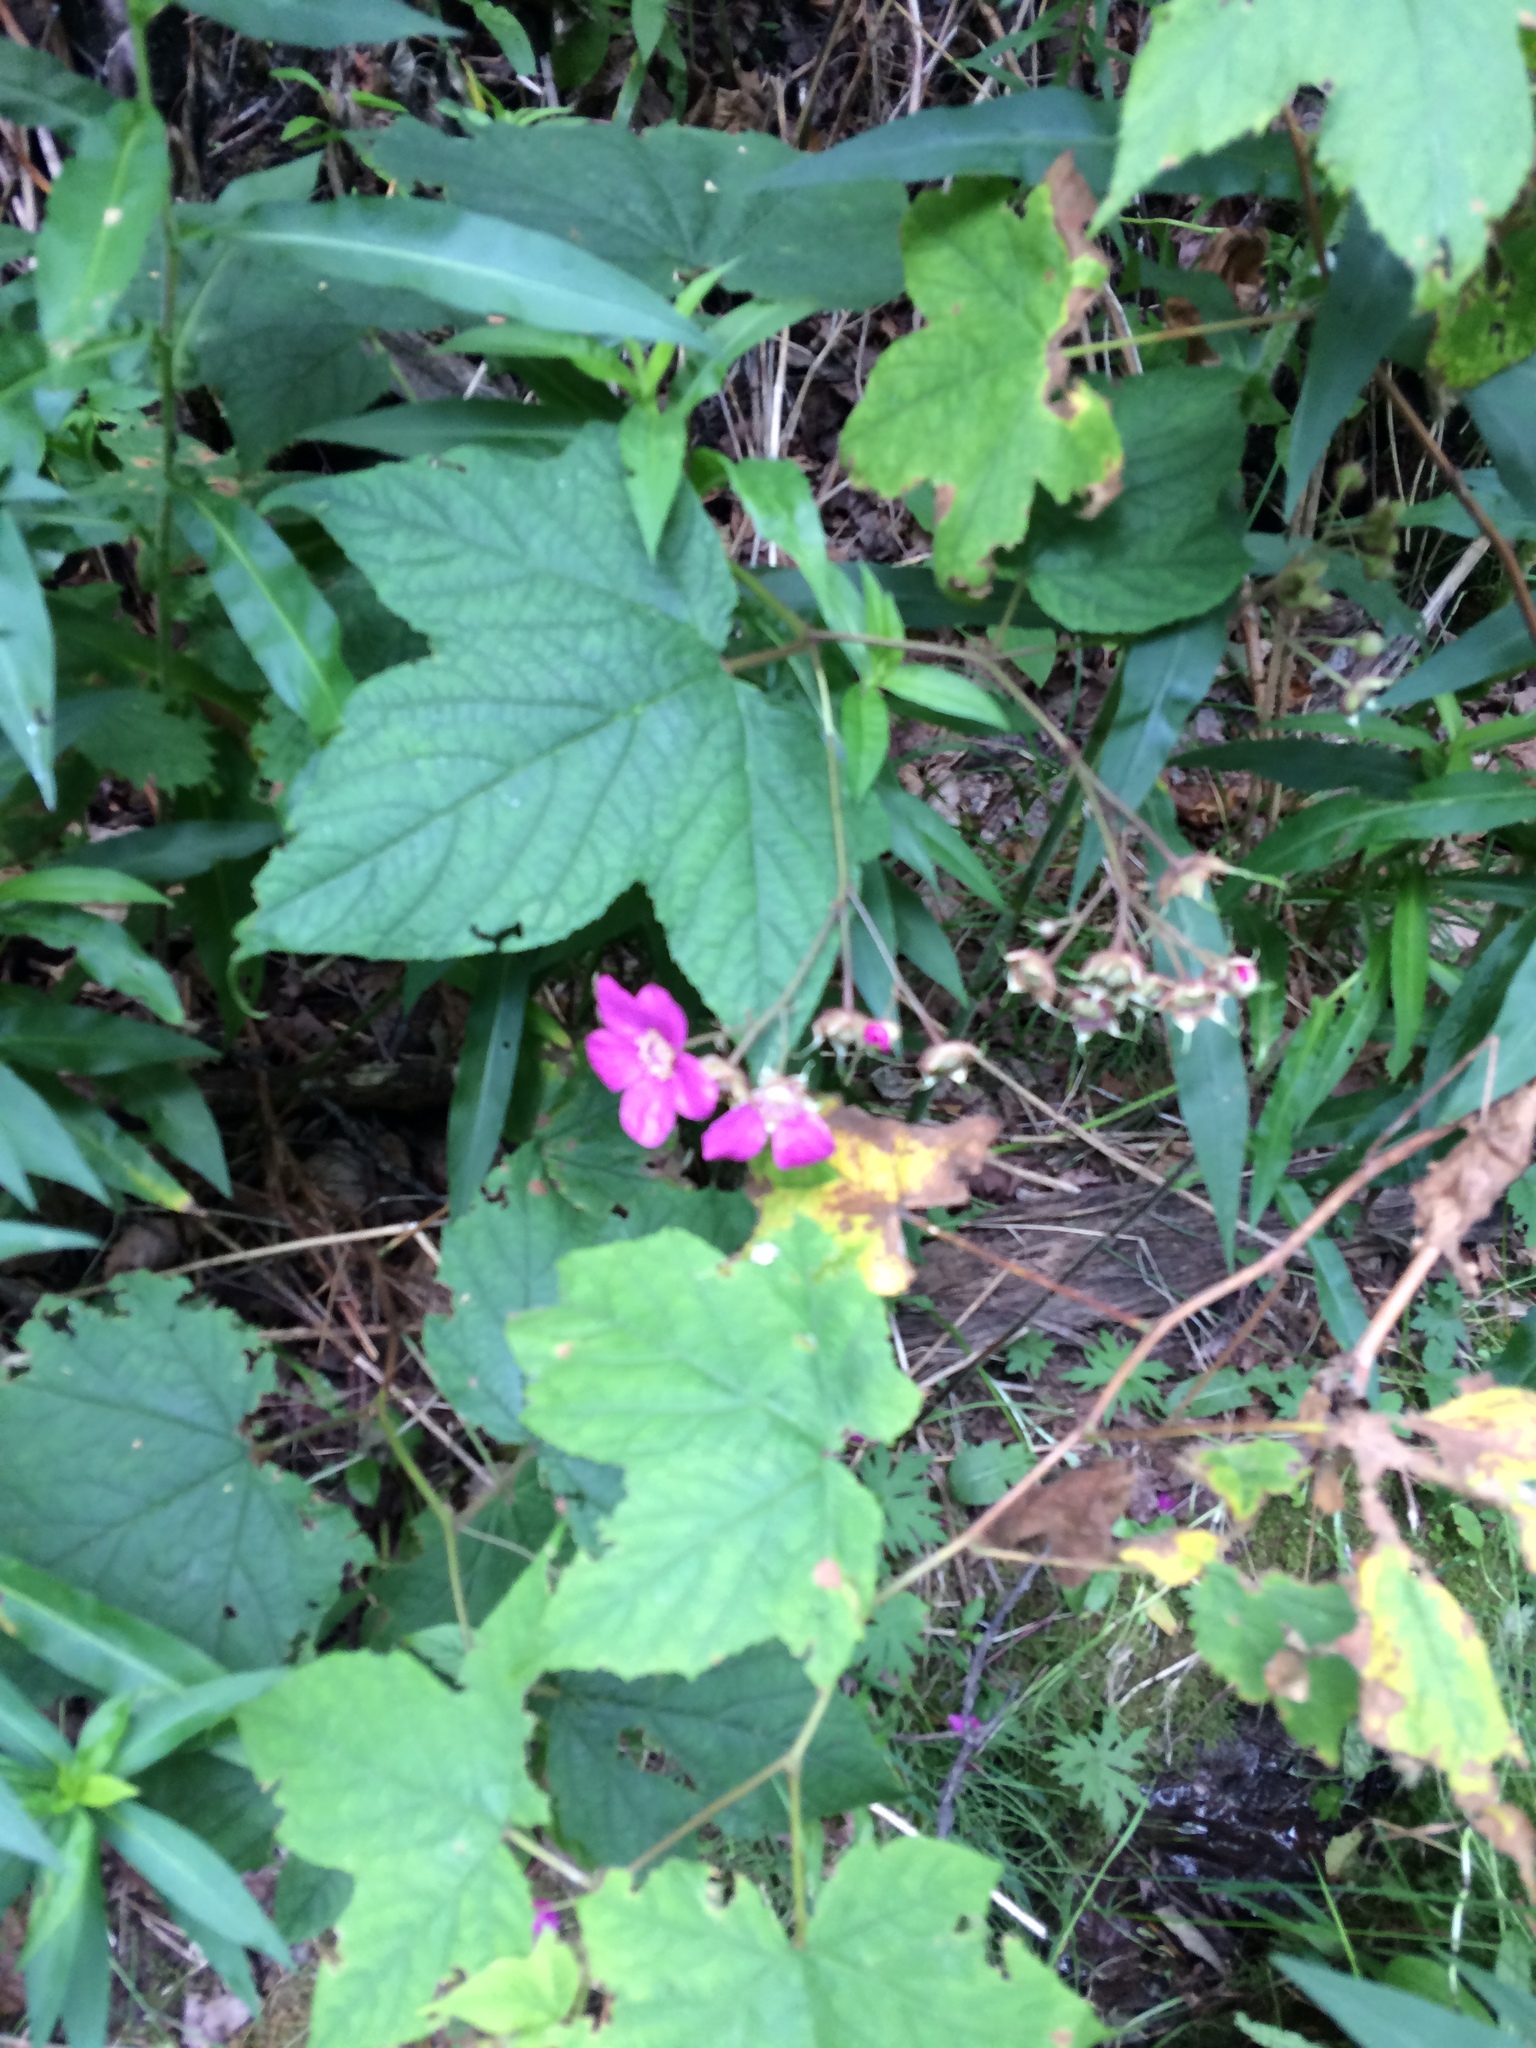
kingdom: Plantae
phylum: Tracheophyta
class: Magnoliopsida
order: Rosales
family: Rosaceae
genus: Rubus
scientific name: Rubus odoratus
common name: Purple-flowered raspberry
